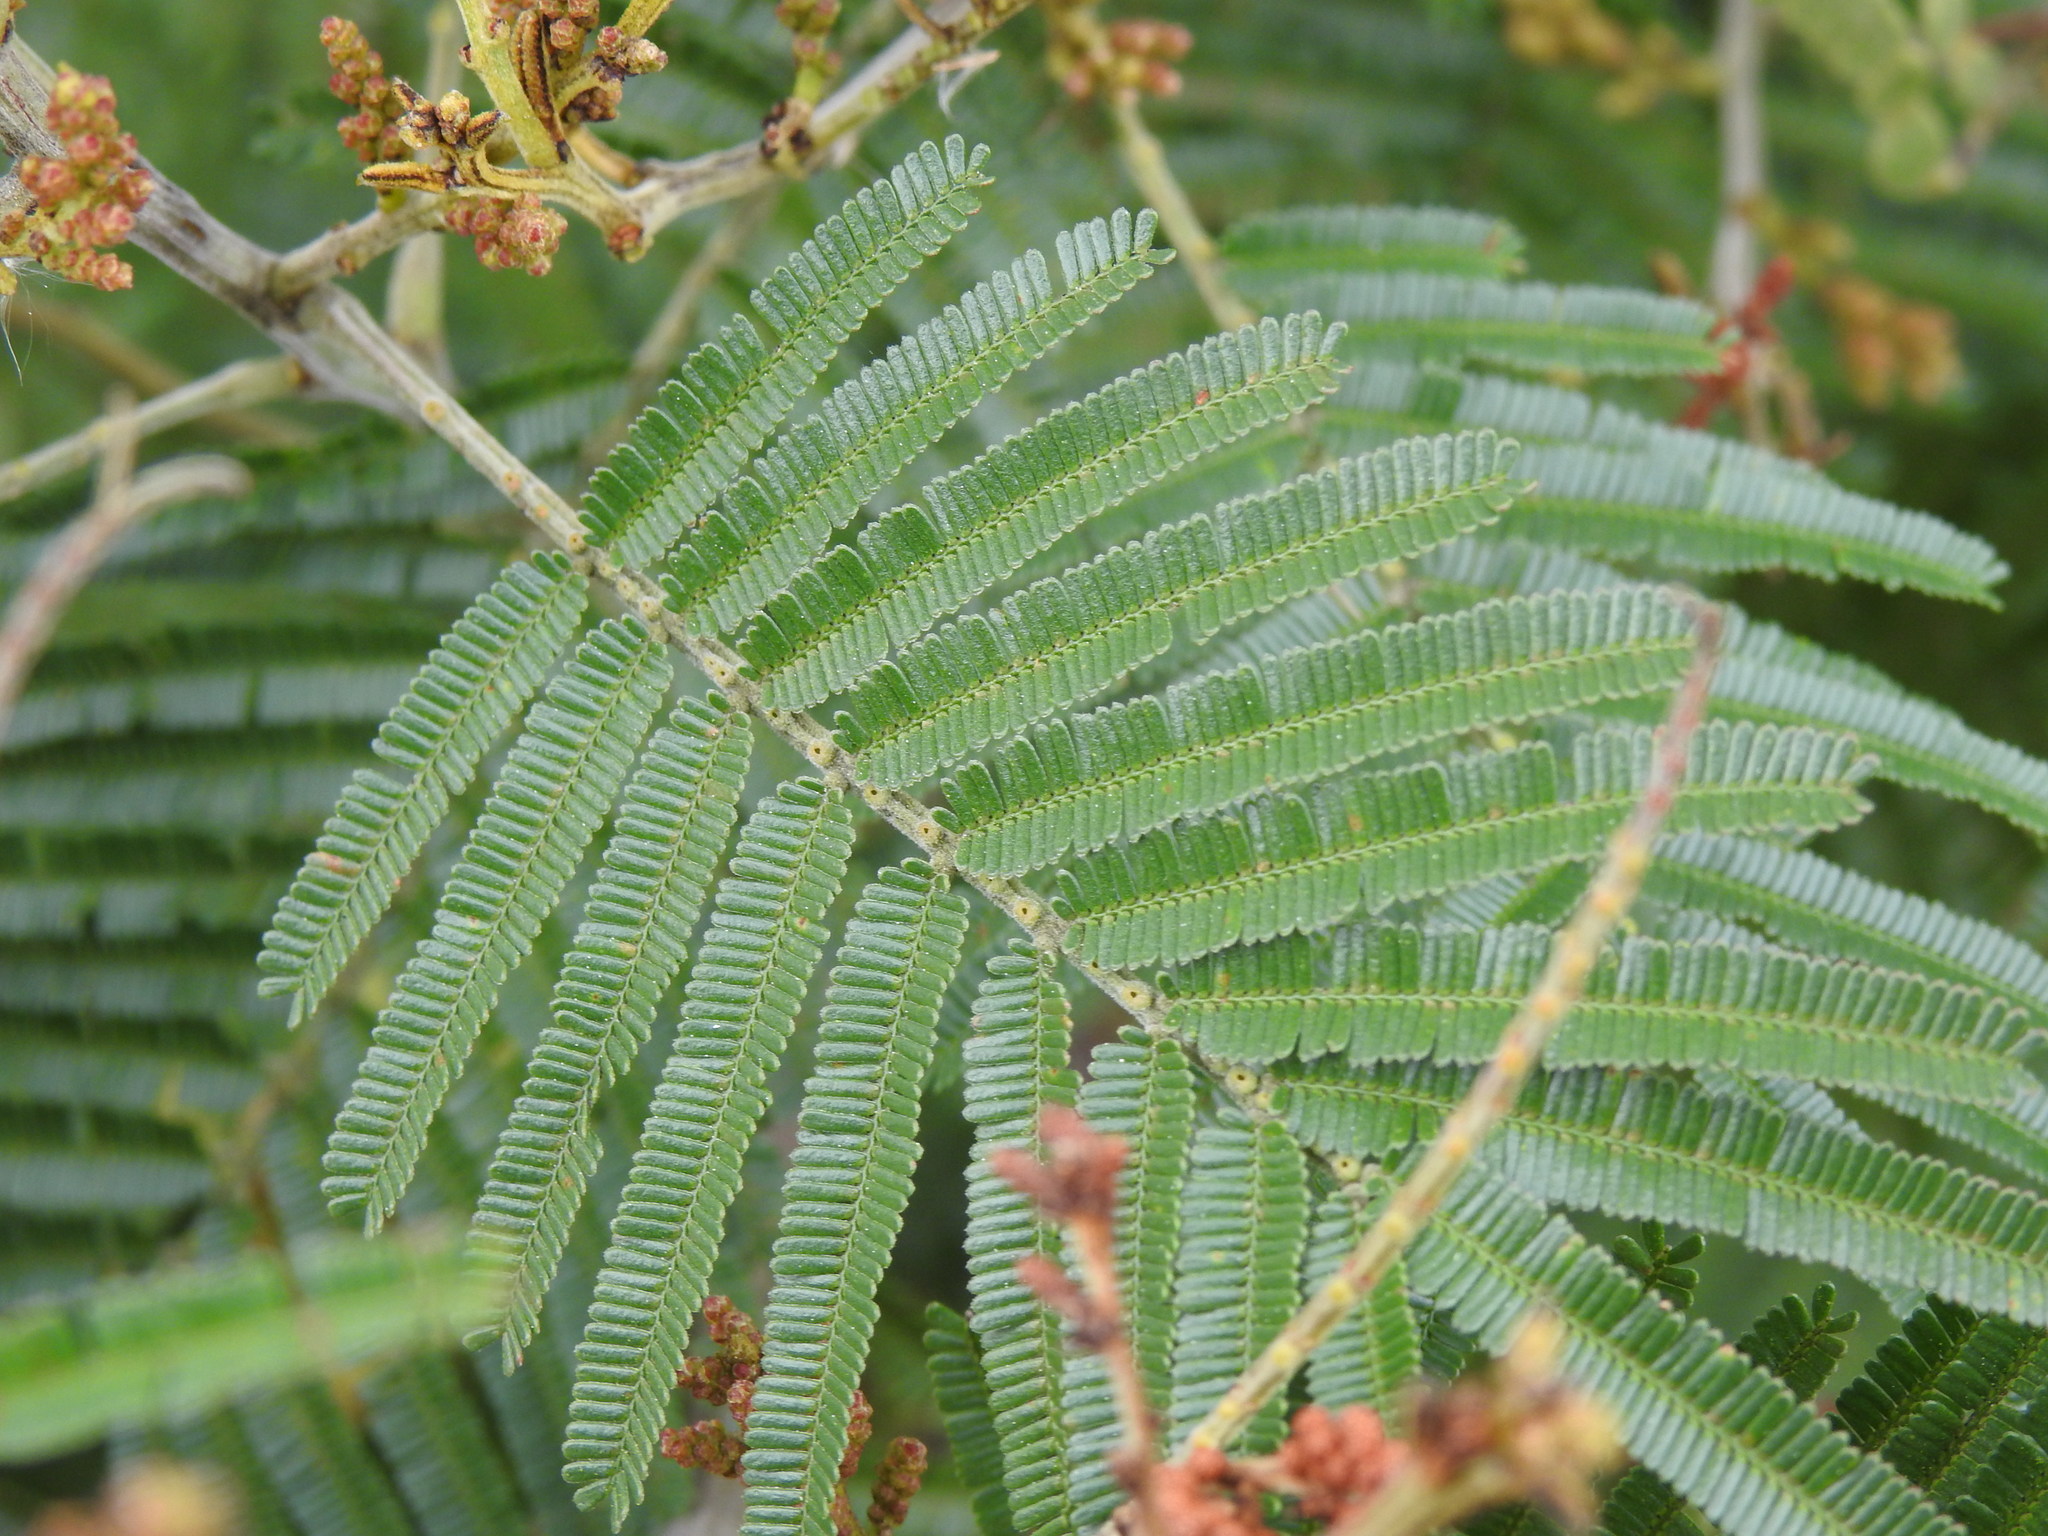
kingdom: Plantae
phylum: Tracheophyta
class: Magnoliopsida
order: Fabales
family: Fabaceae
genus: Acacia
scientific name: Acacia mearnsii
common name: Black wattle
